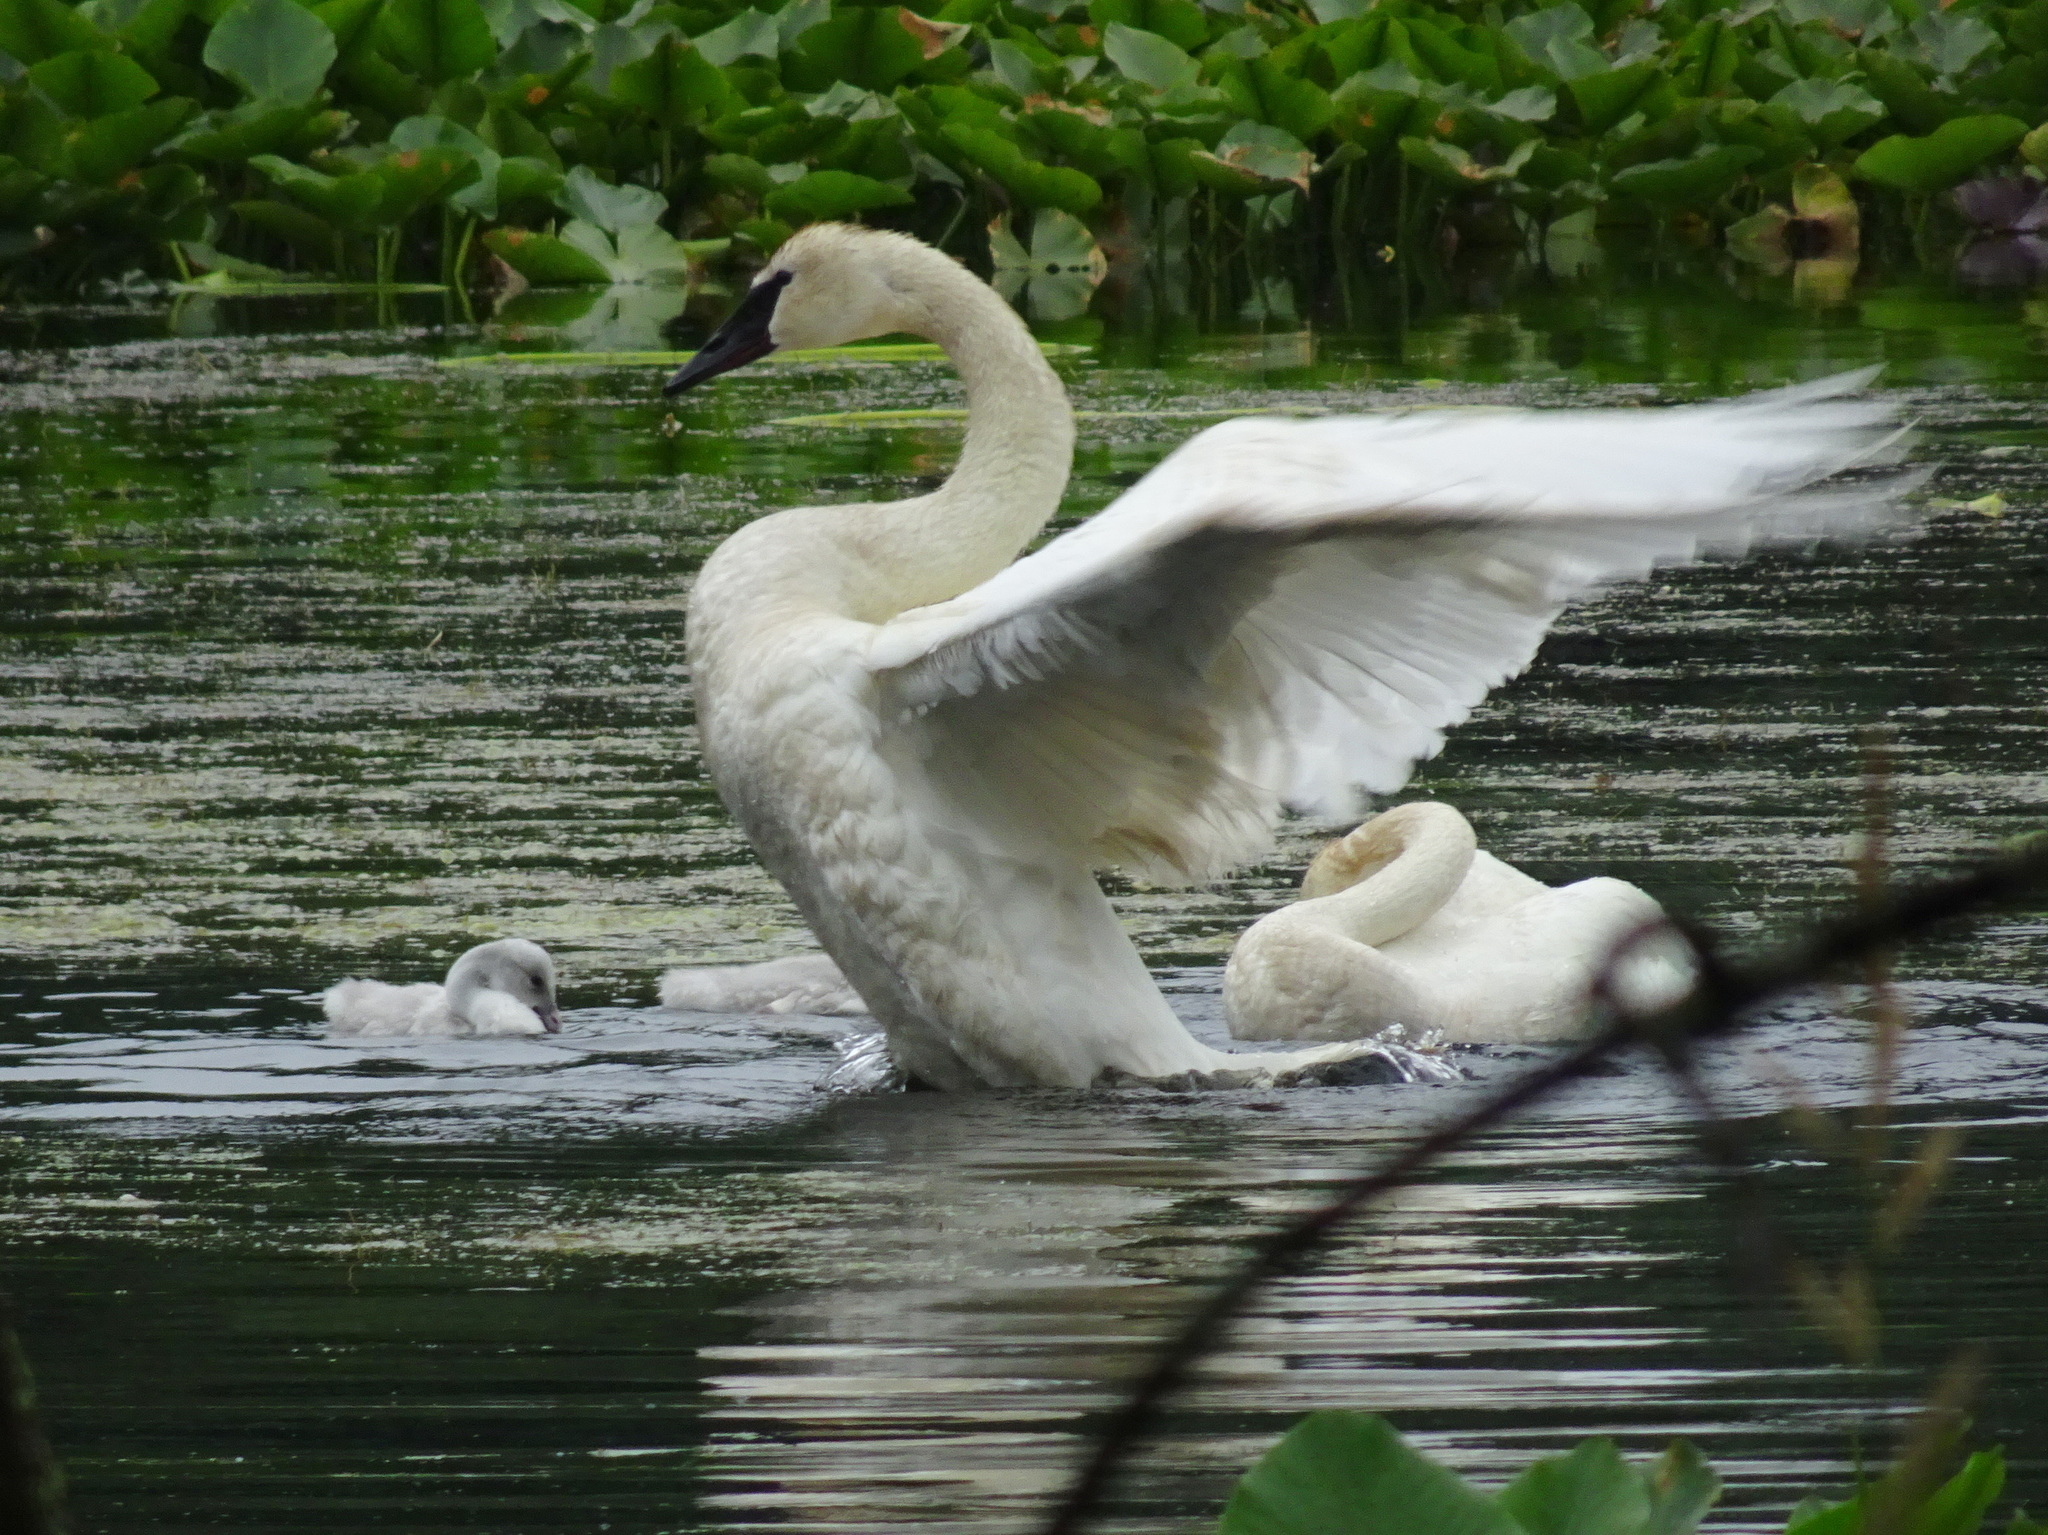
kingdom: Animalia
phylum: Chordata
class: Aves
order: Anseriformes
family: Anatidae
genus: Cygnus
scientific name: Cygnus buccinator
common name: Trumpeter swan
